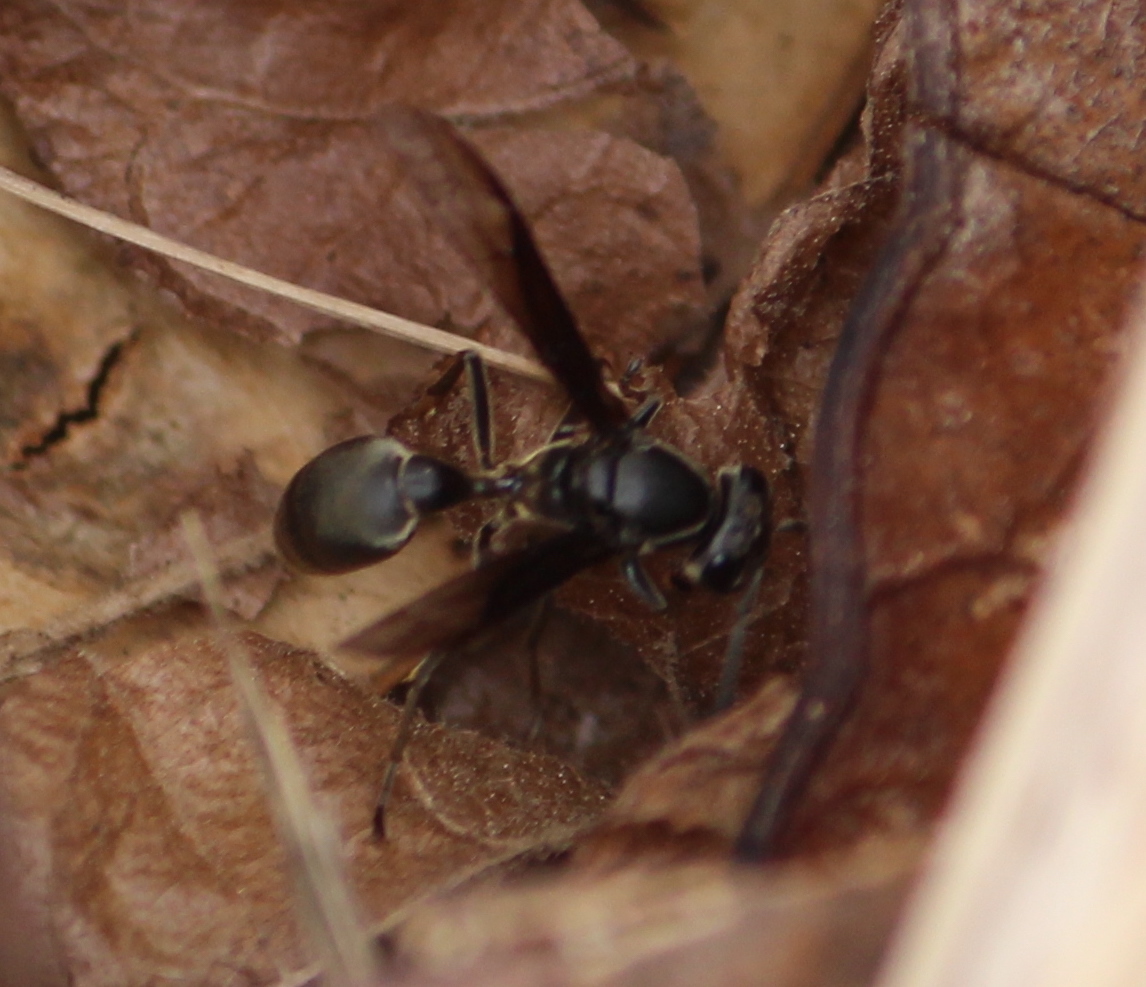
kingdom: Animalia
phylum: Arthropoda
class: Insecta
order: Hymenoptera
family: Eumenidae
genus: Polybia
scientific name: Polybia ignobilis
